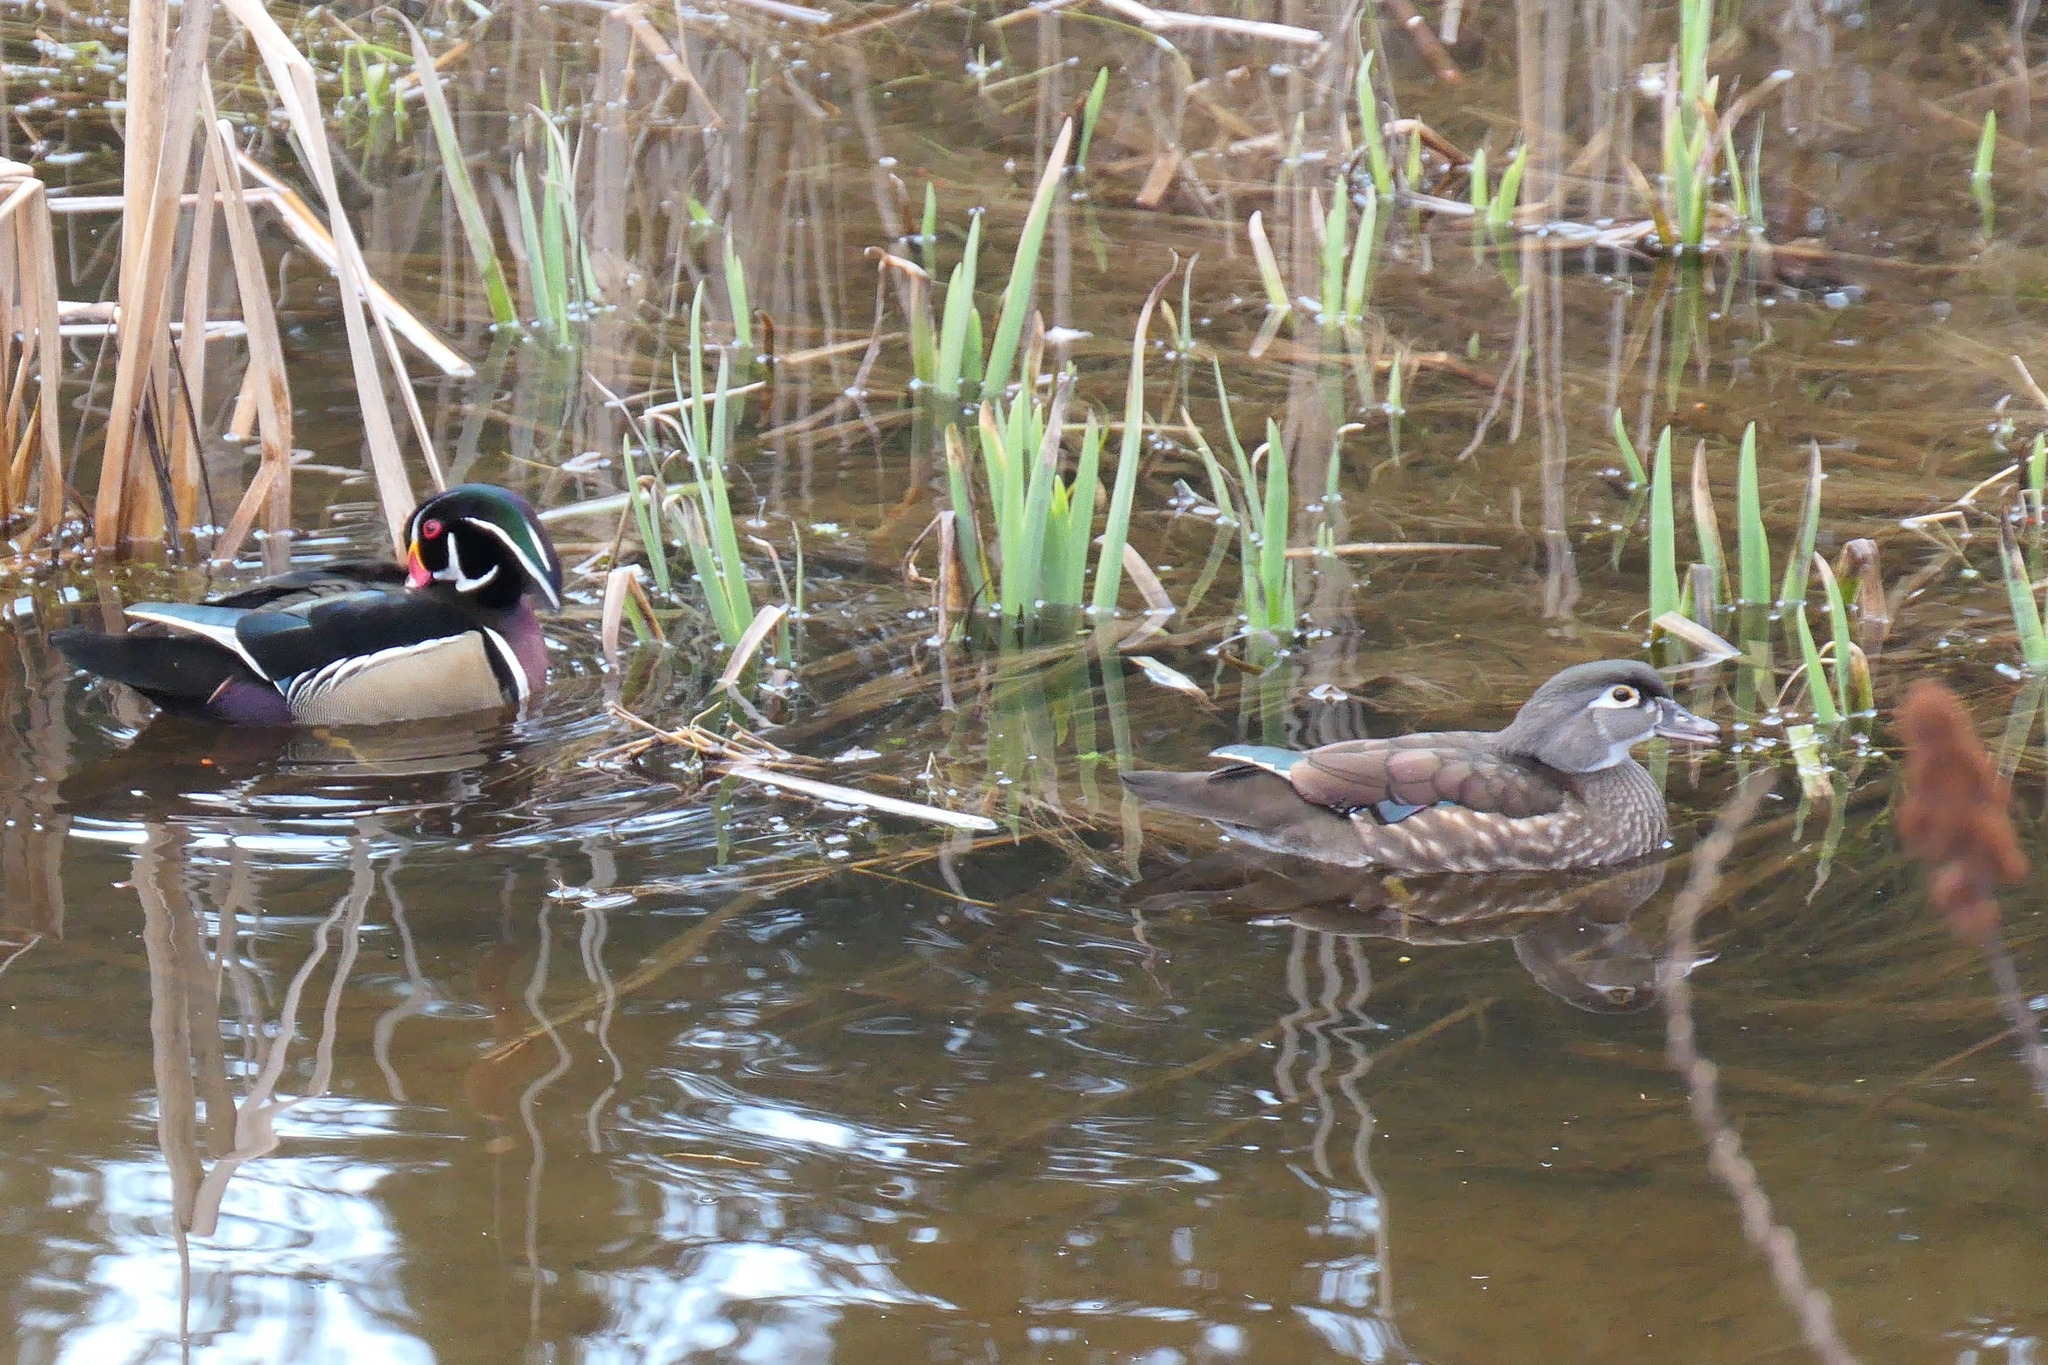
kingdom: Animalia
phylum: Chordata
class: Aves
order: Anseriformes
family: Anatidae
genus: Aix
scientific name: Aix sponsa
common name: Wood duck
